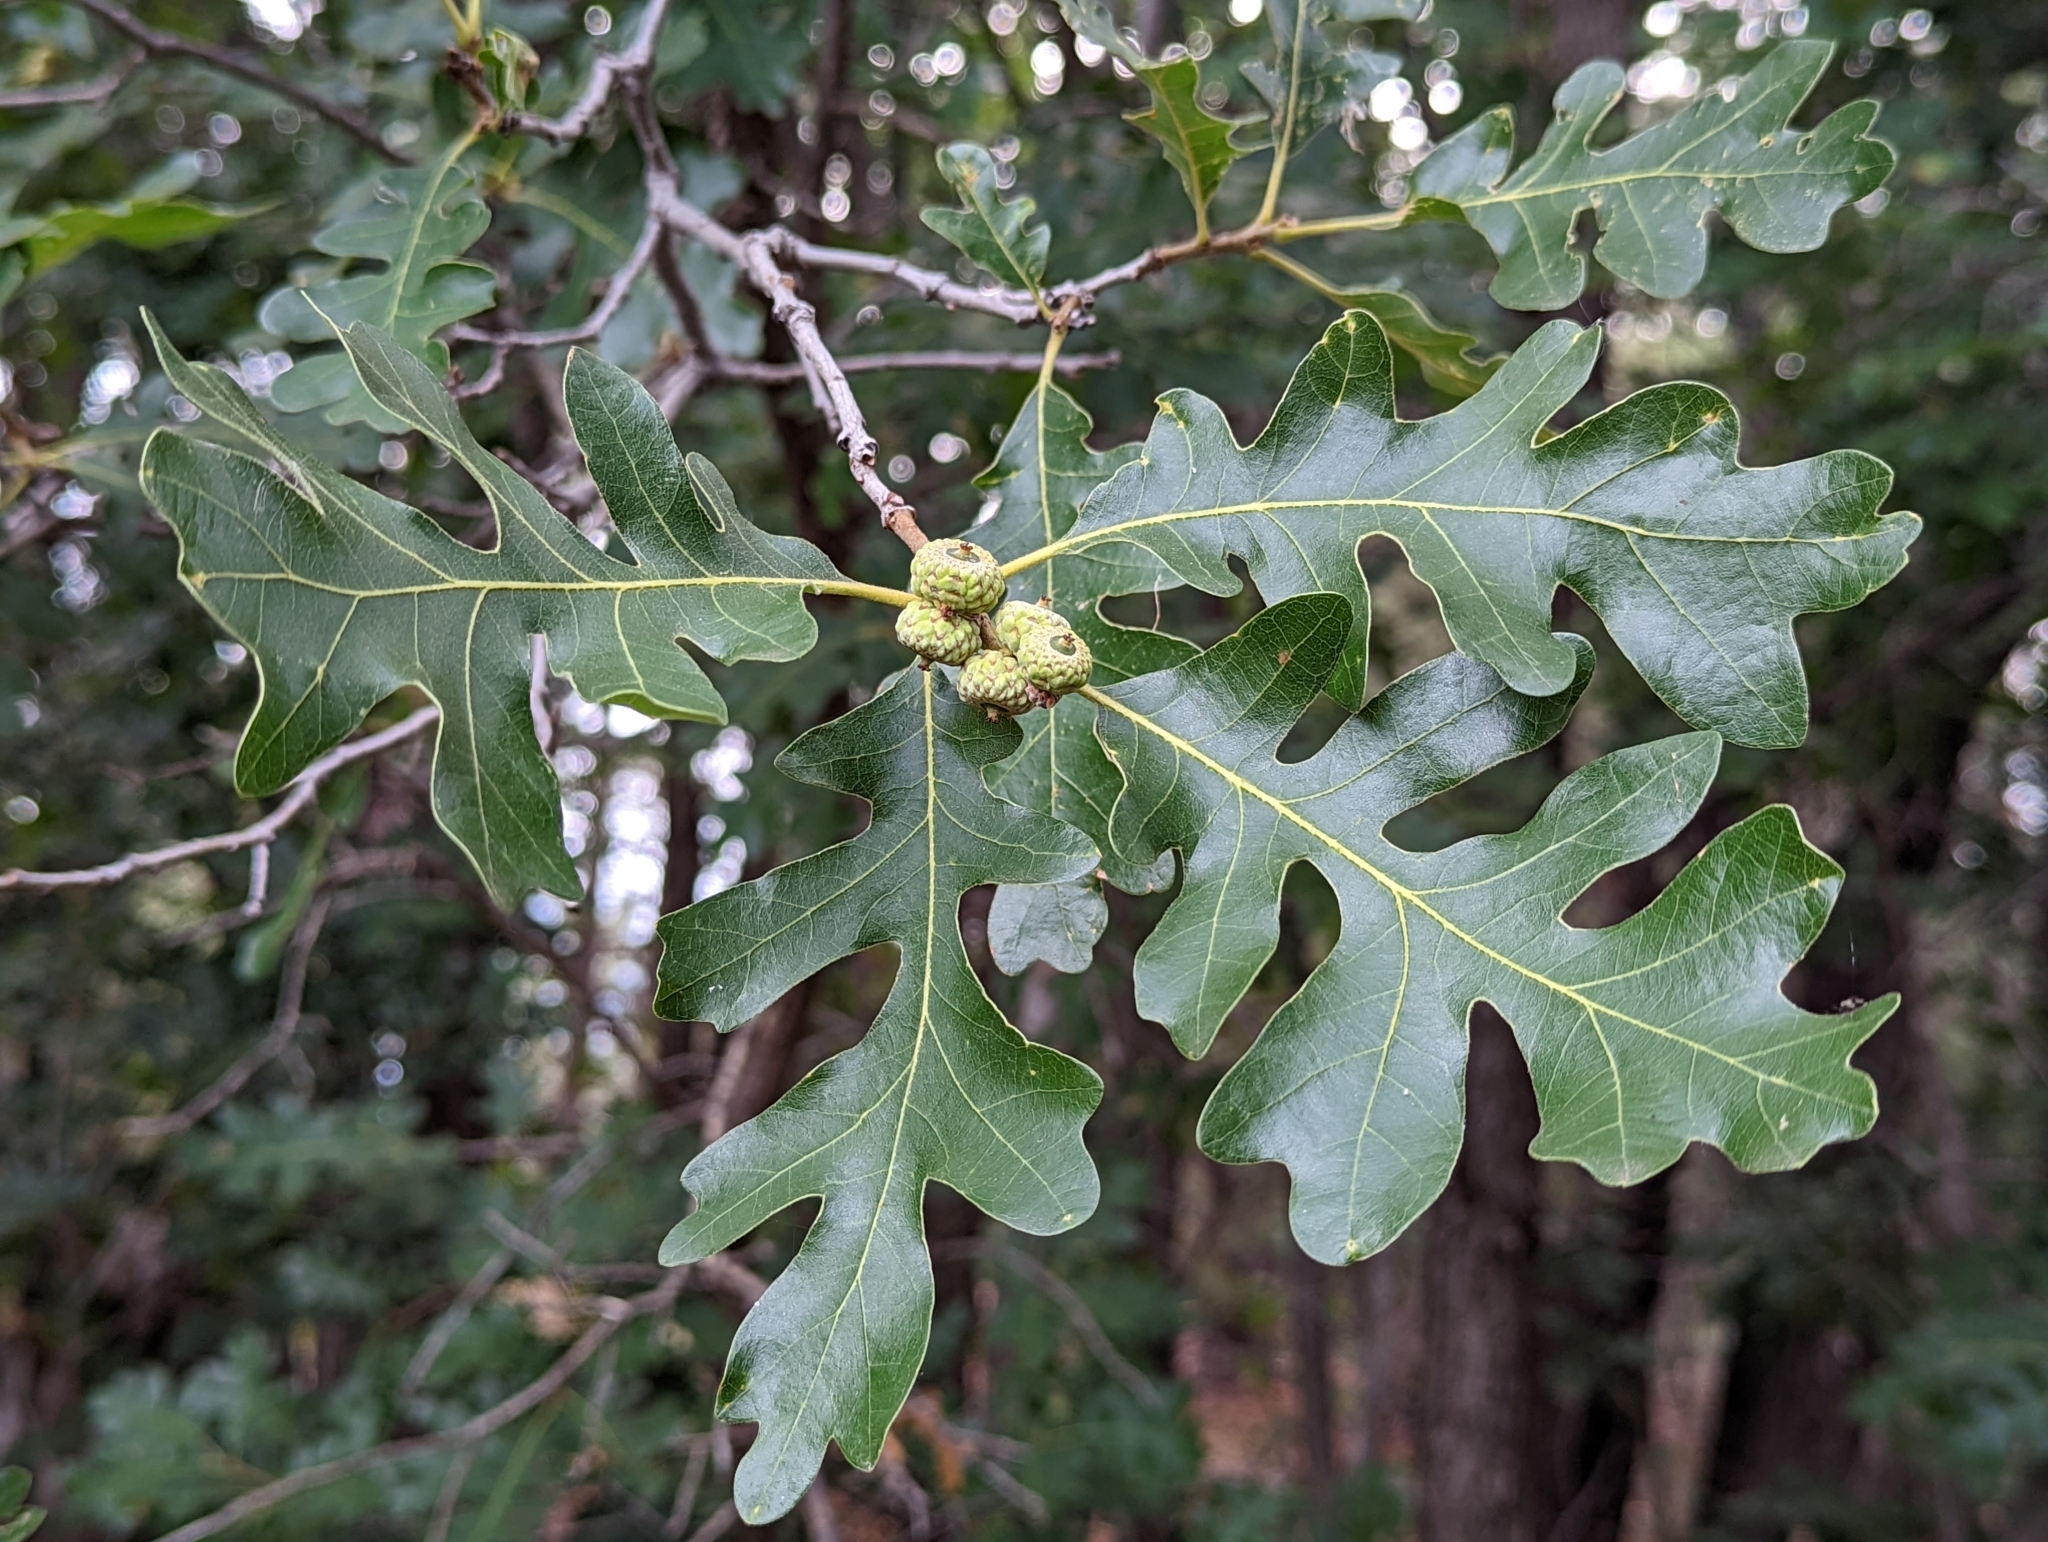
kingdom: Plantae
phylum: Tracheophyta
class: Magnoliopsida
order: Fagales
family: Fagaceae
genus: Quercus
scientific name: Quercus gambelii
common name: Gambel oak
